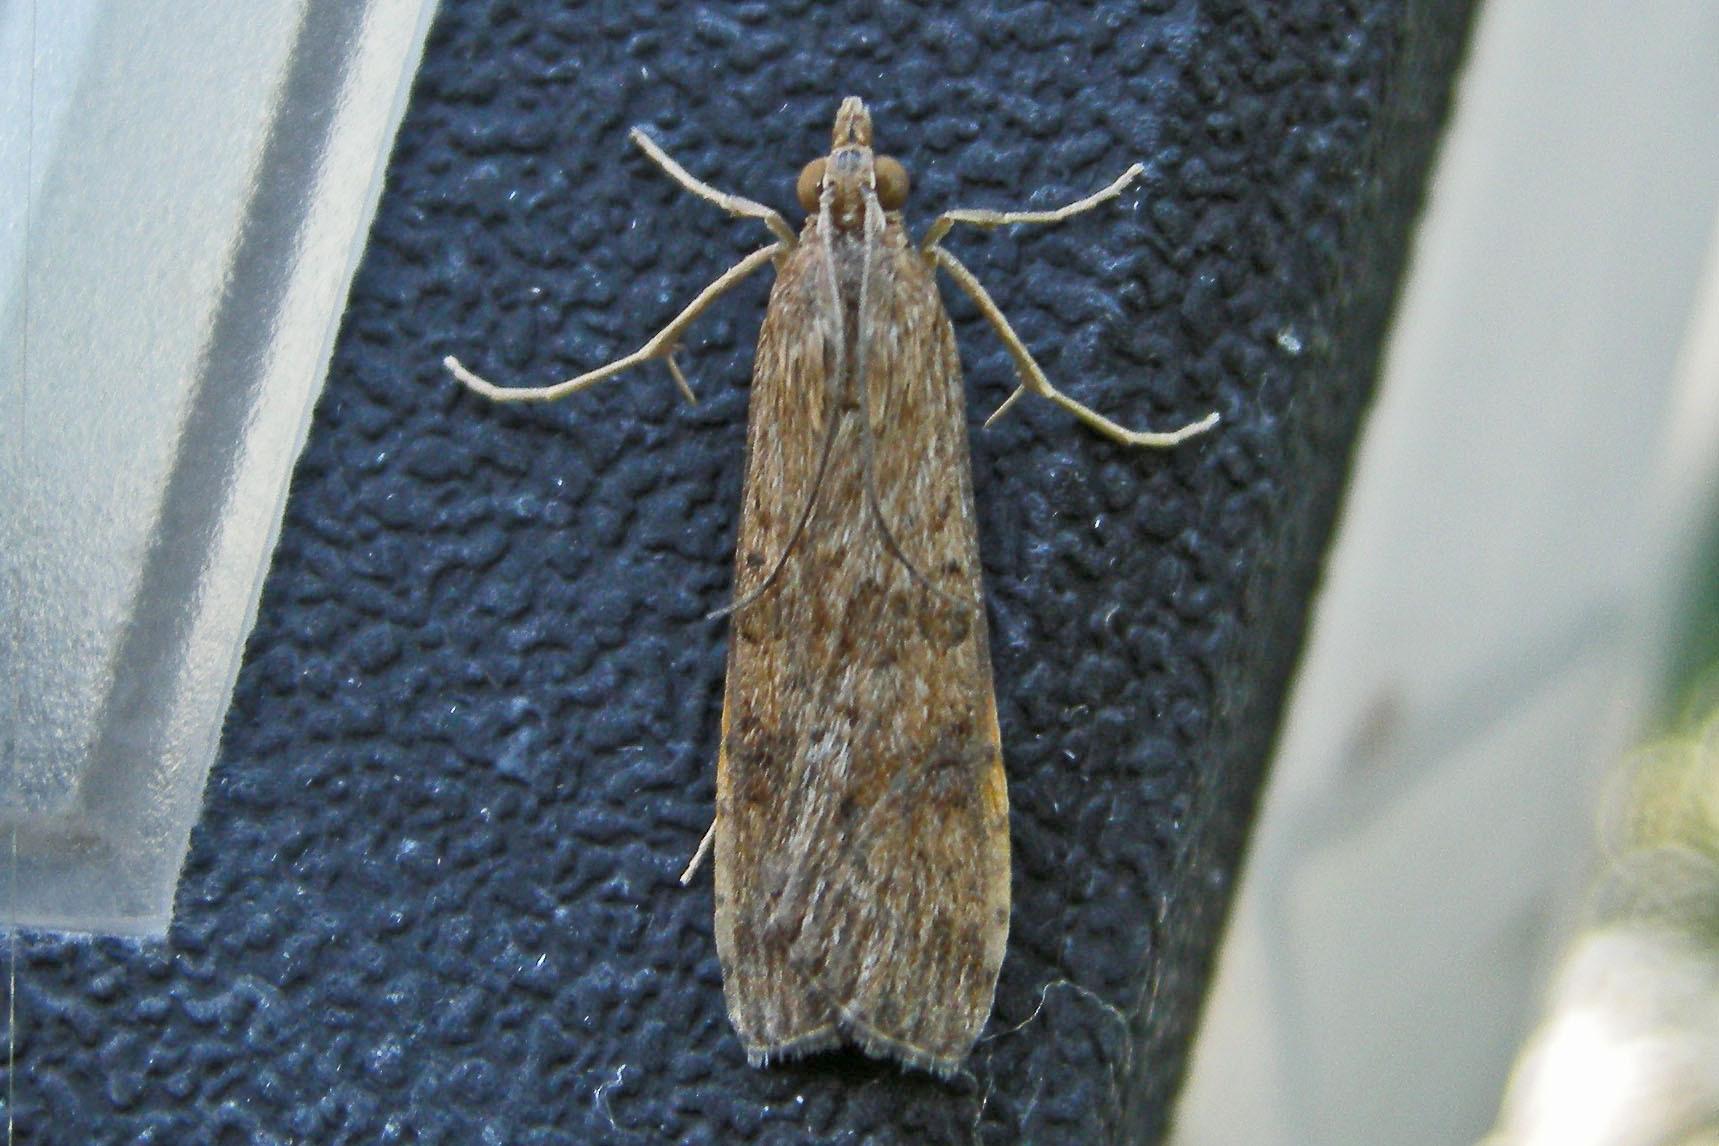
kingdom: Animalia
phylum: Arthropoda
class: Insecta
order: Lepidoptera
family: Crambidae
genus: Nomophila
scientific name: Nomophila nearctica
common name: American rush veneer
